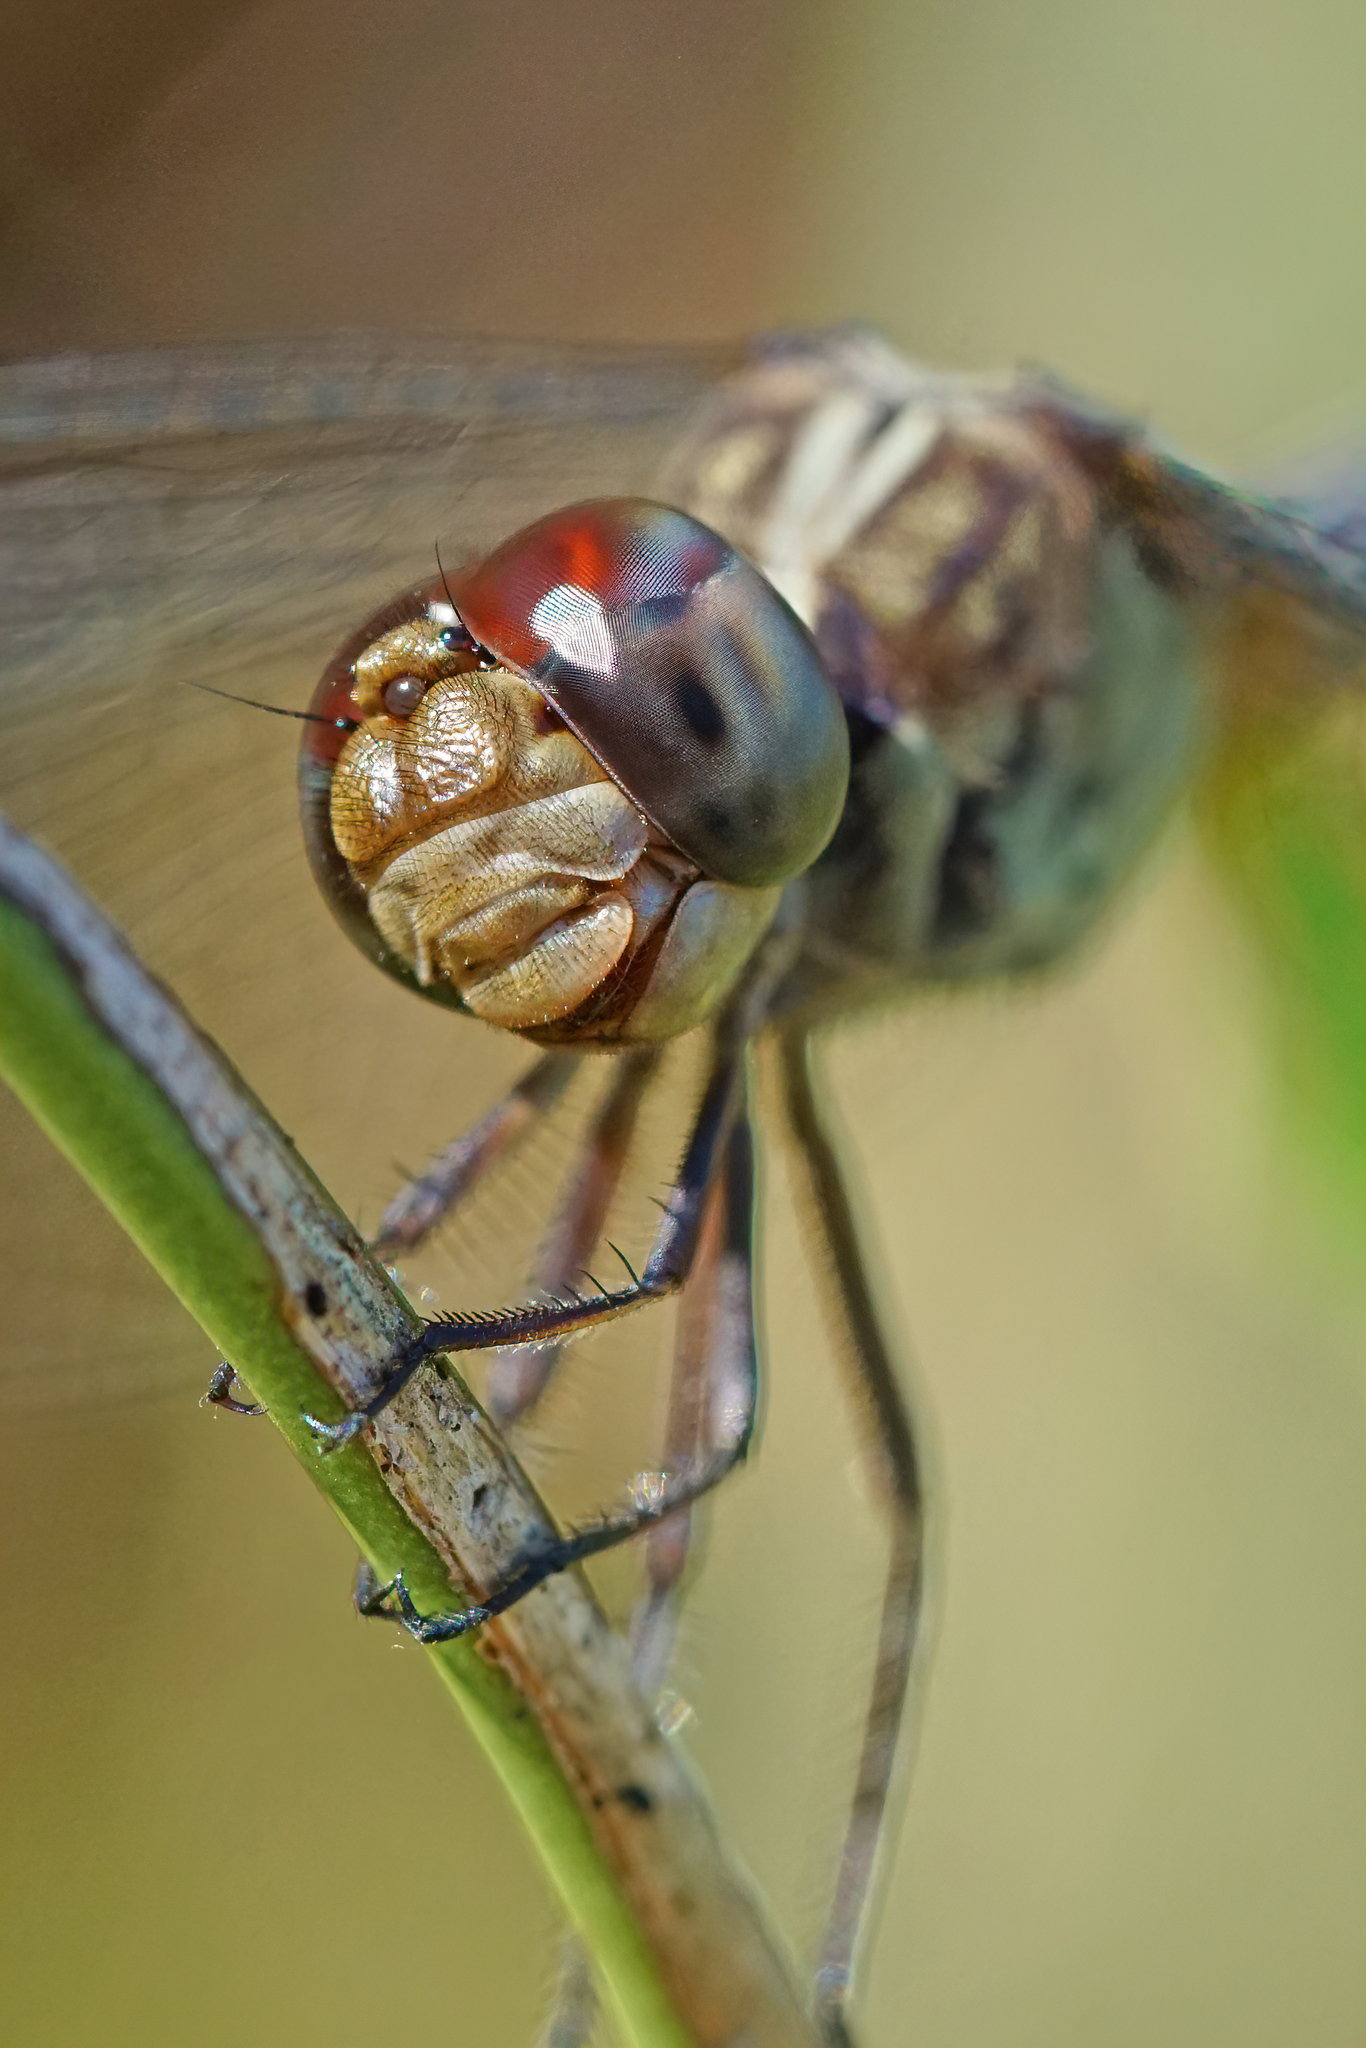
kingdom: Animalia
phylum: Arthropoda
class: Insecta
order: Odonata
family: Libellulidae
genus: Erythrodiplax
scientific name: Erythrodiplax umbrata
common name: Band-winged dragonlet
